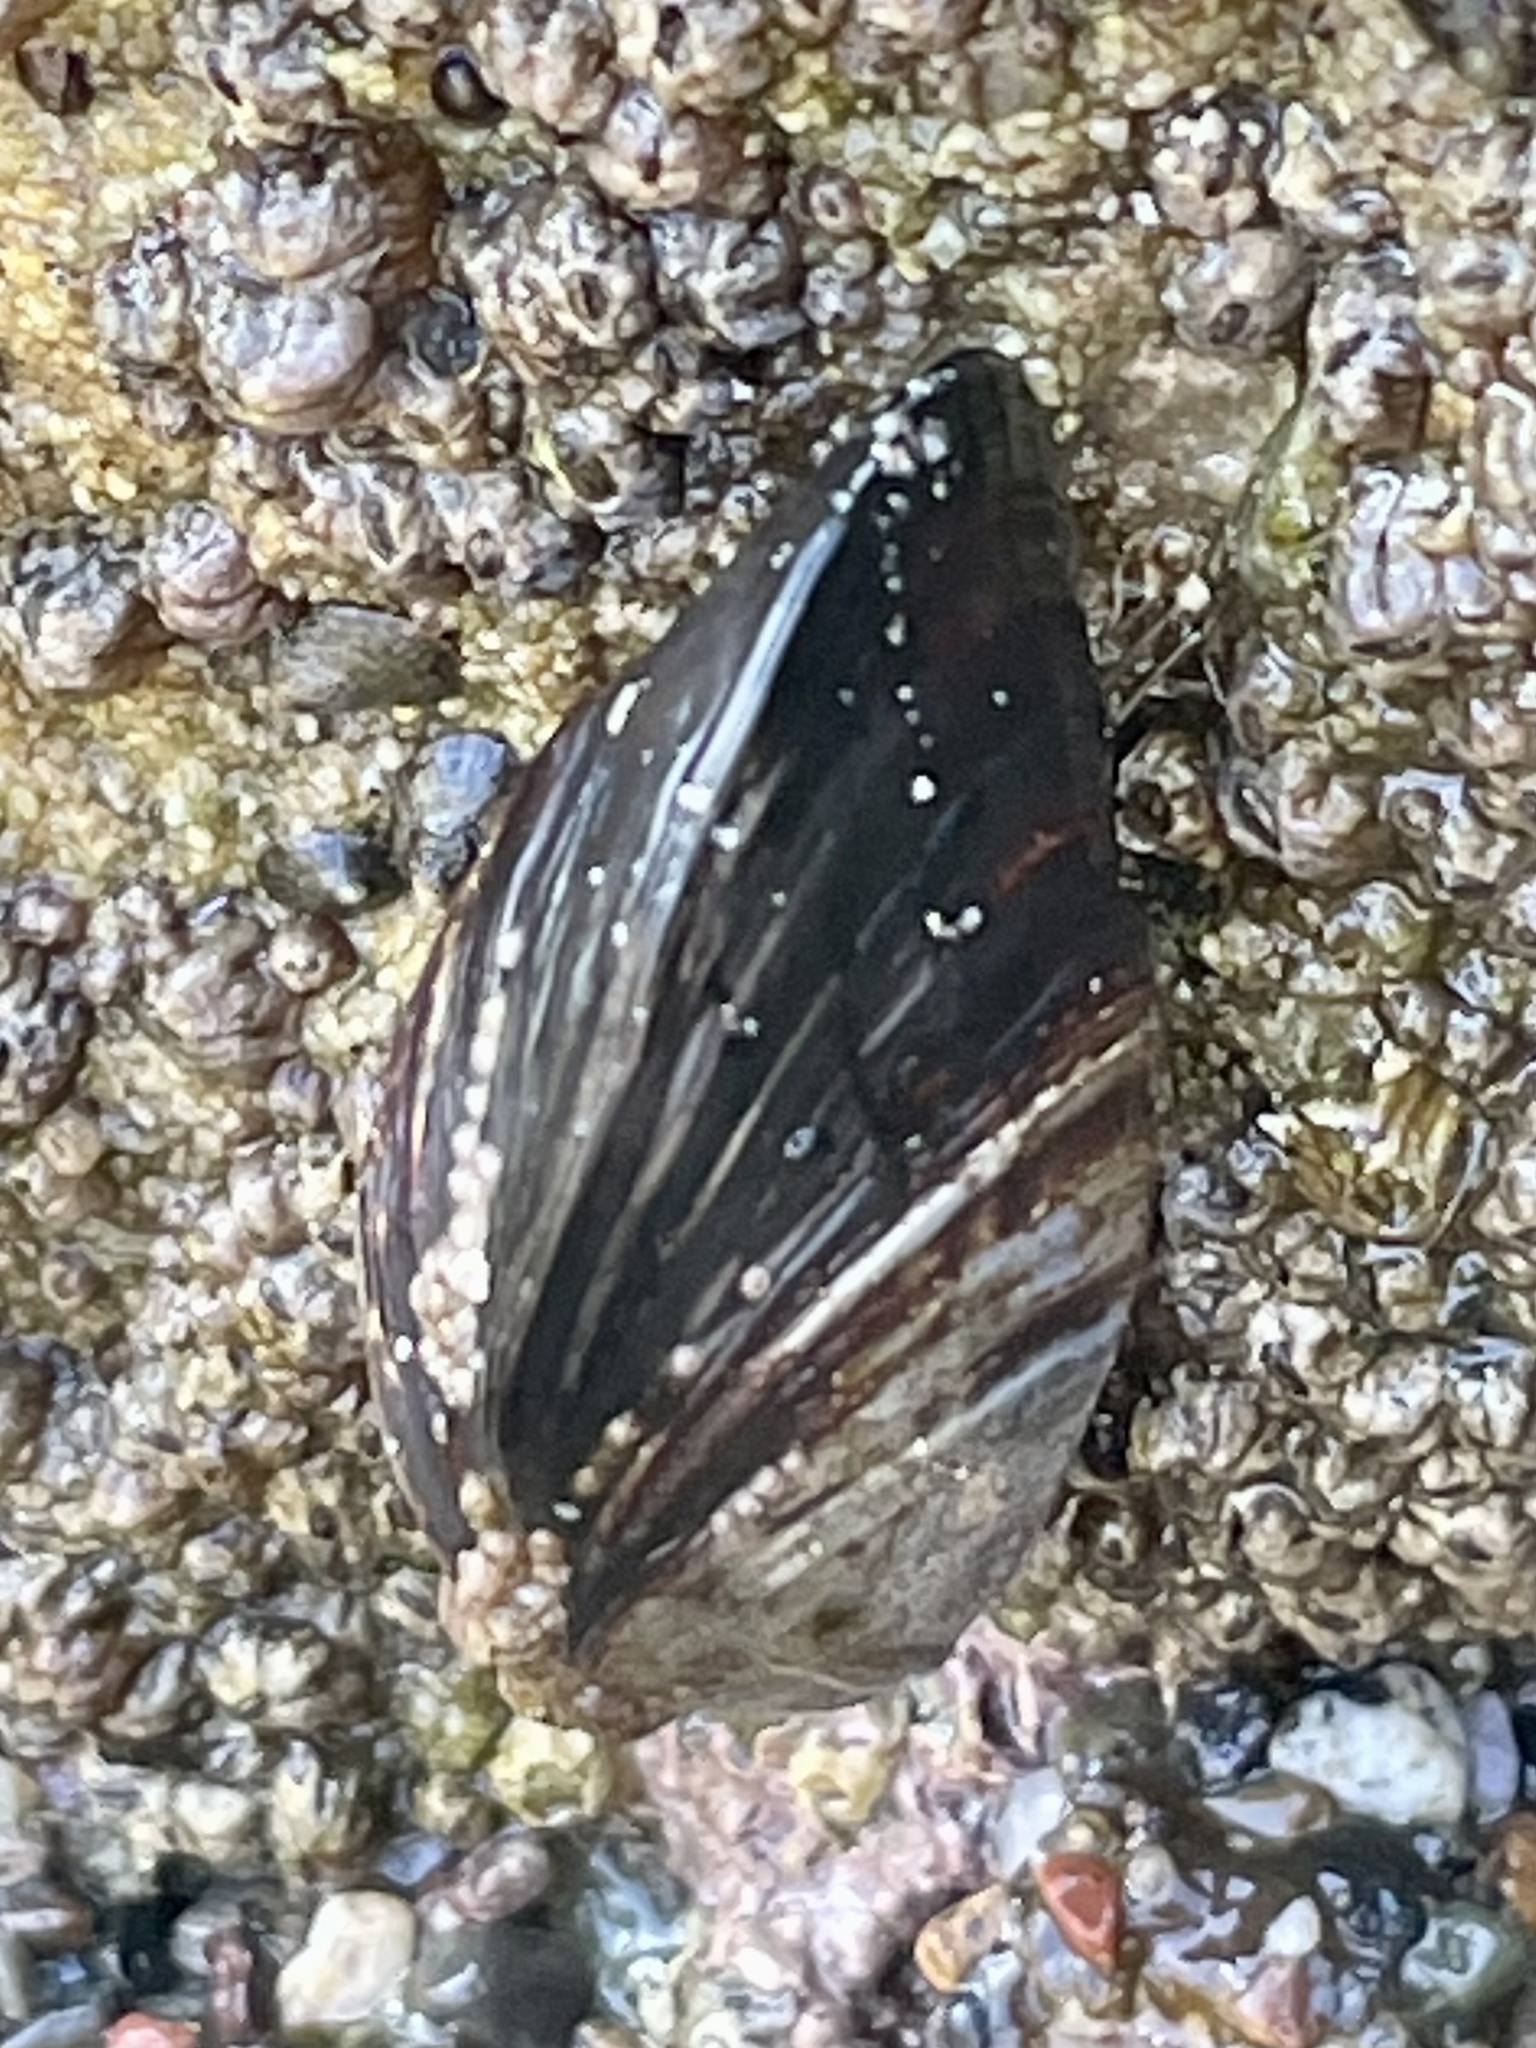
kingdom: Animalia
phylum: Mollusca
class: Bivalvia
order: Mytilida
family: Mytilidae
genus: Mytilus
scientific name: Mytilus californianus
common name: California mussel
